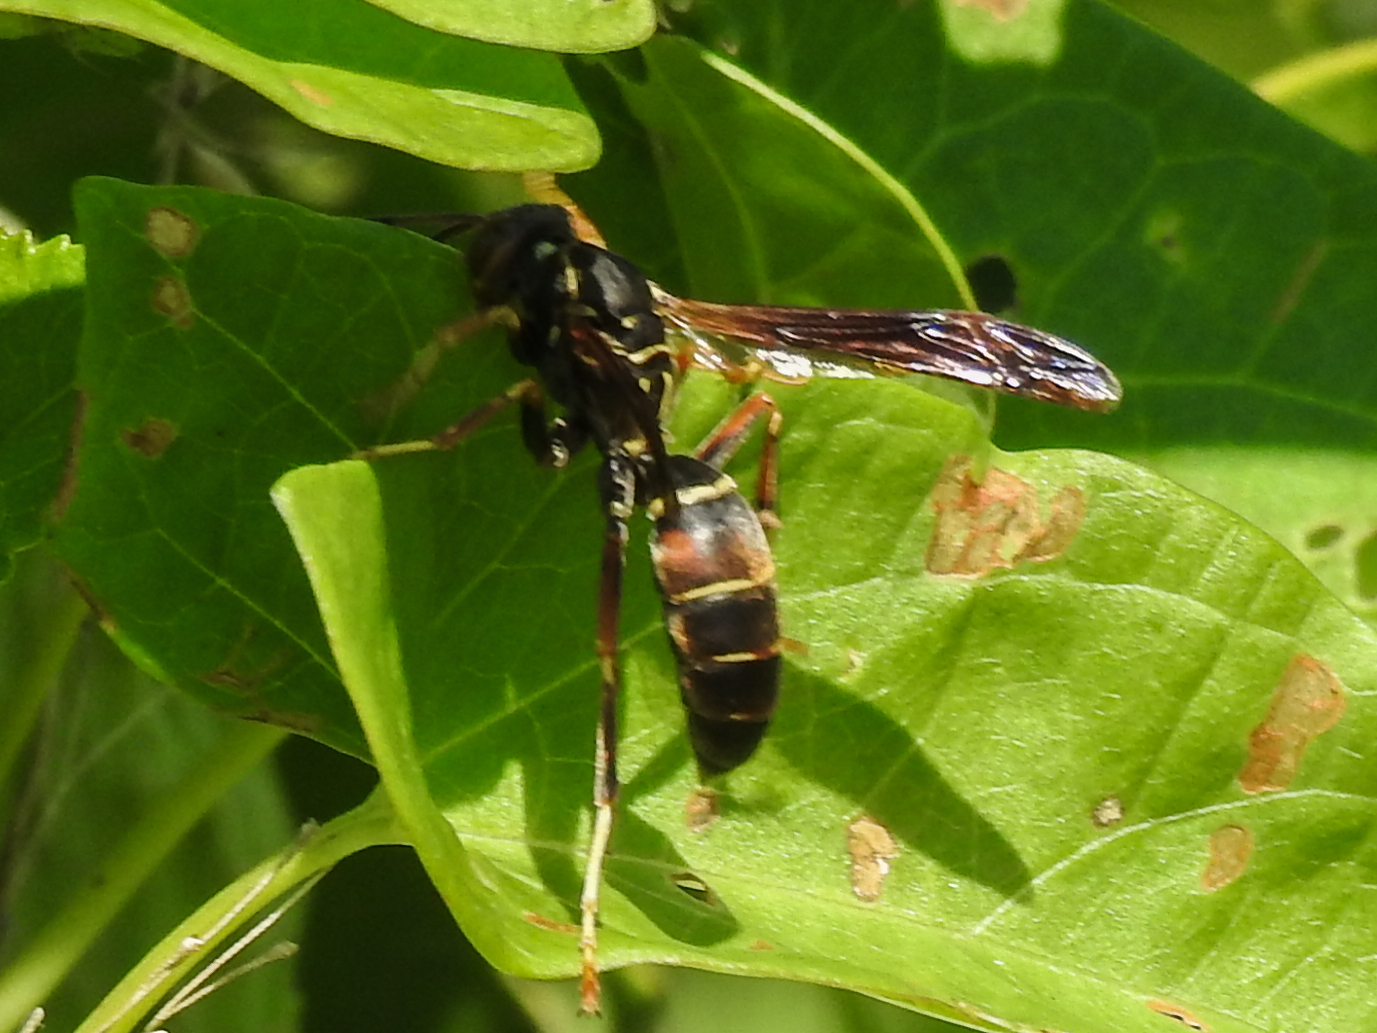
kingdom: Animalia
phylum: Arthropoda
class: Insecta
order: Hymenoptera
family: Eumenidae
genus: Polistes
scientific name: Polistes fuscatus
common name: Dark paper wasp
